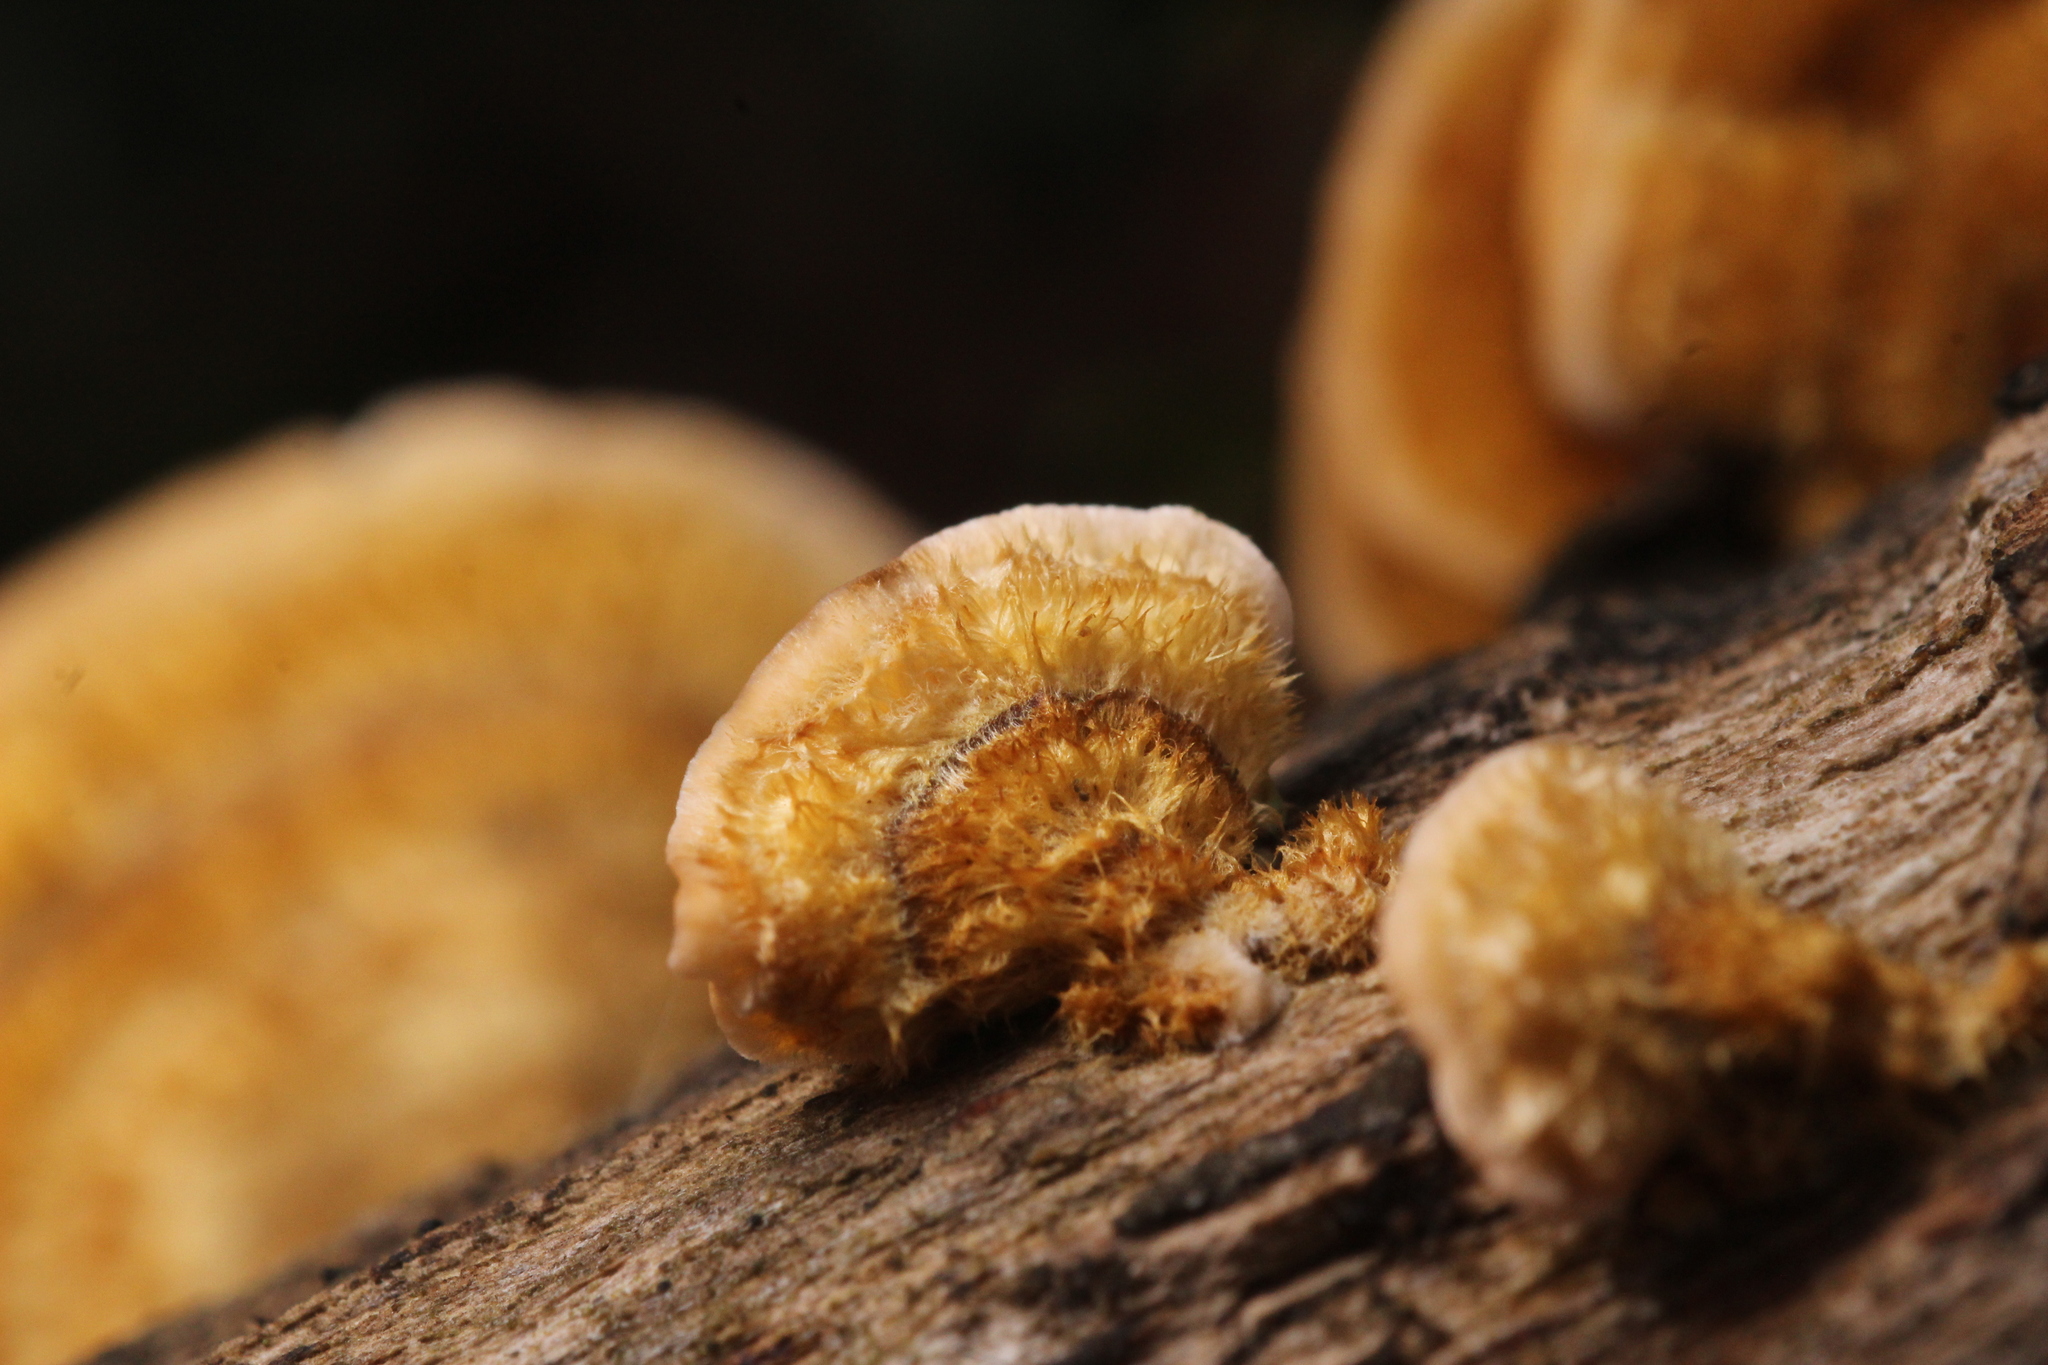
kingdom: Fungi
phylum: Basidiomycota
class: Agaricomycetes
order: Russulales
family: Stereaceae
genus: Stereum
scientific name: Stereum hirsutum
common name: Hairy curtain crust
